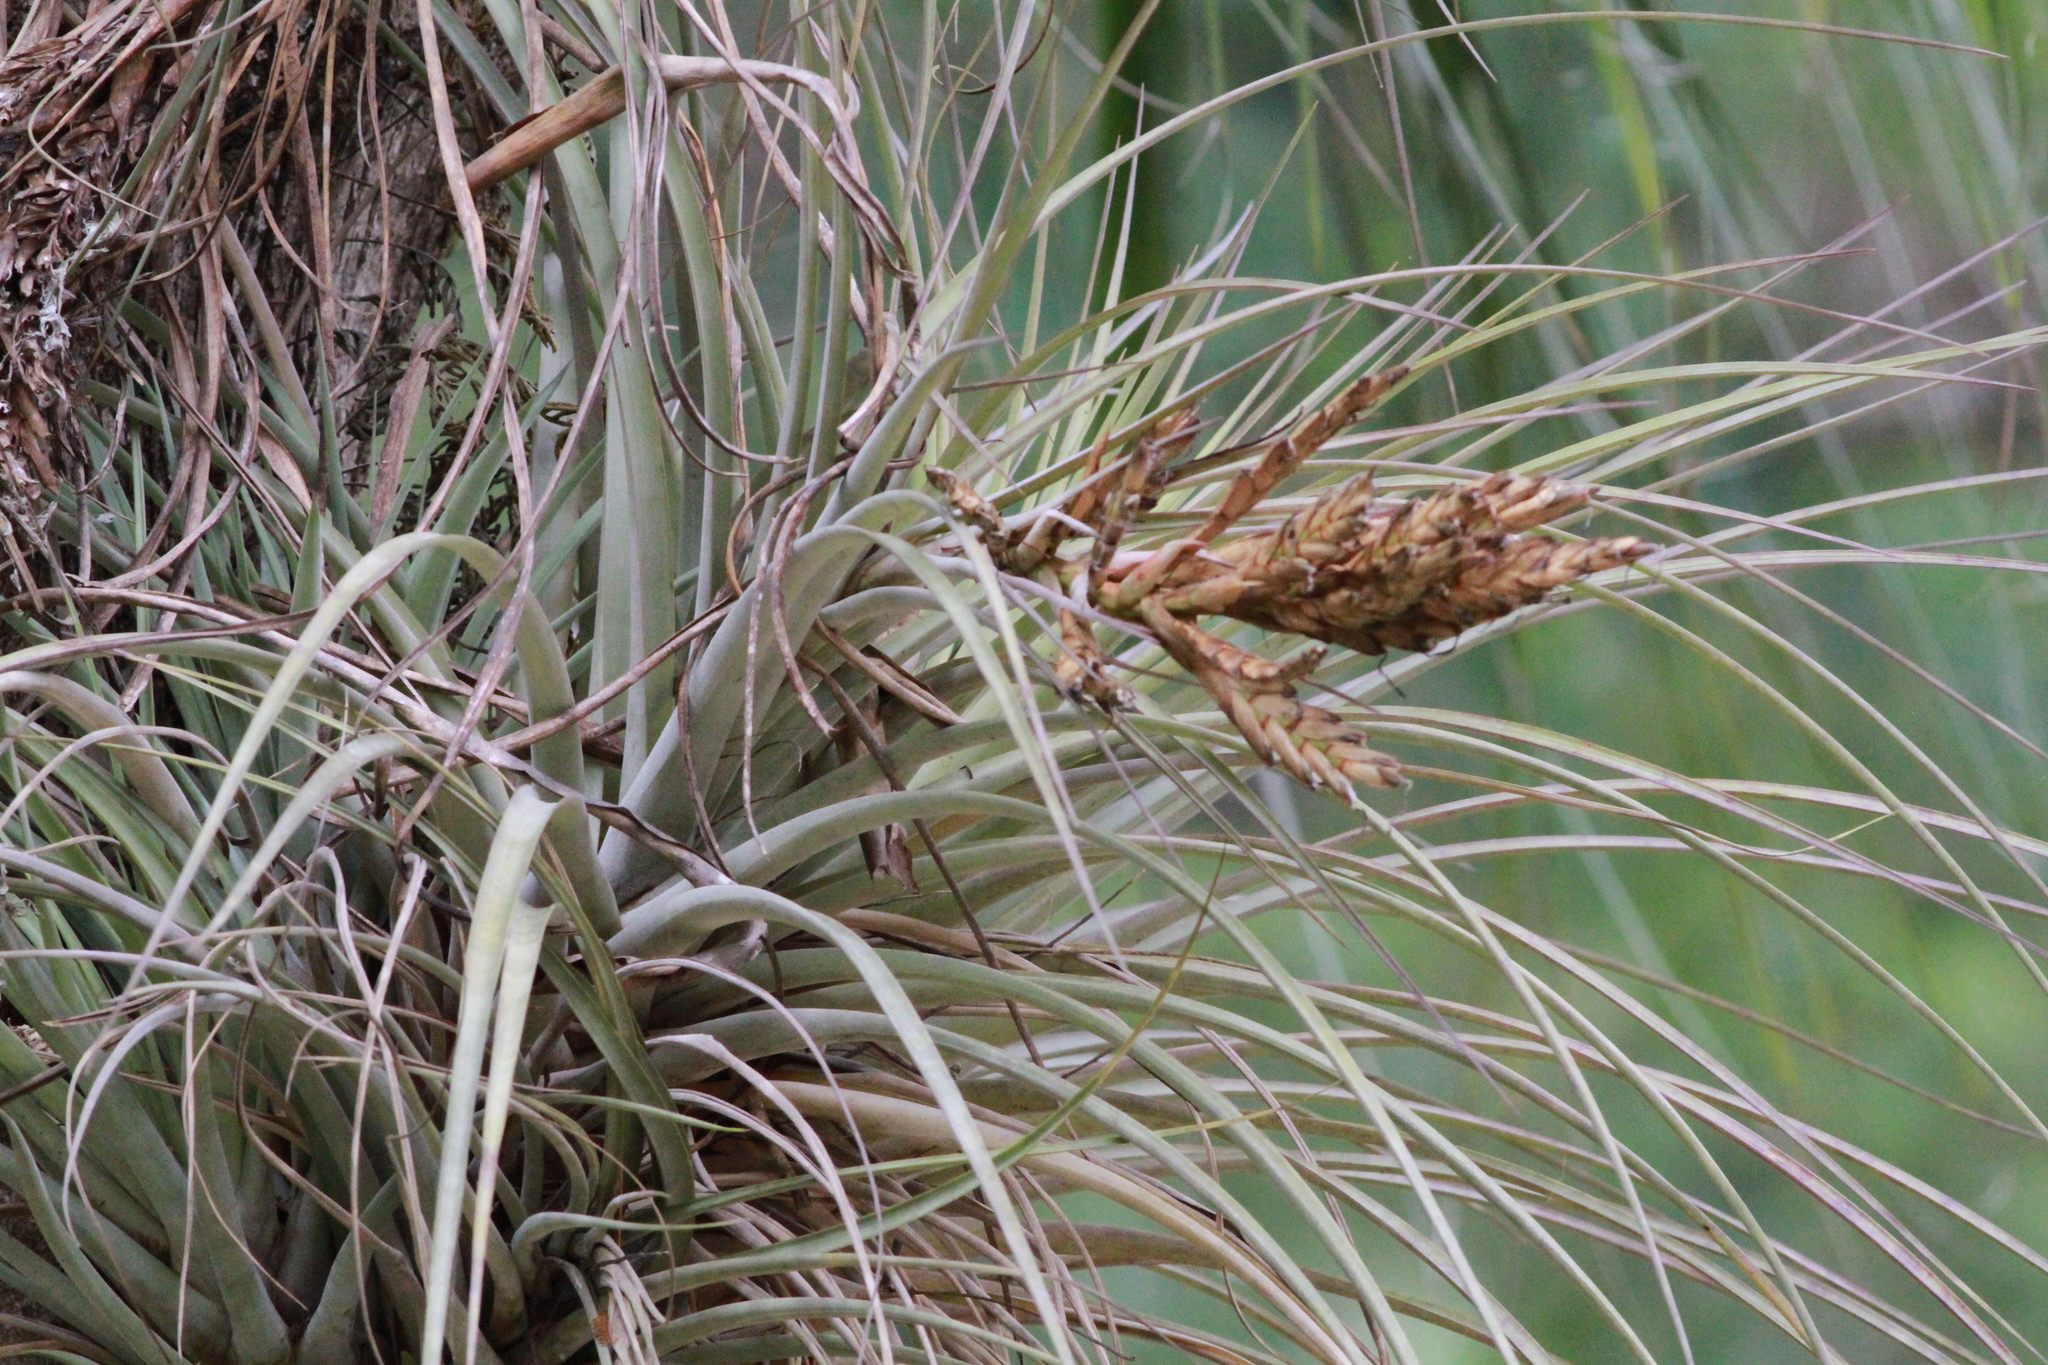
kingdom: Plantae
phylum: Tracheophyta
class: Liliopsida
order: Poales
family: Bromeliaceae
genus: Tillandsia
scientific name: Tillandsia fasciculata
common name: Giant airplant
